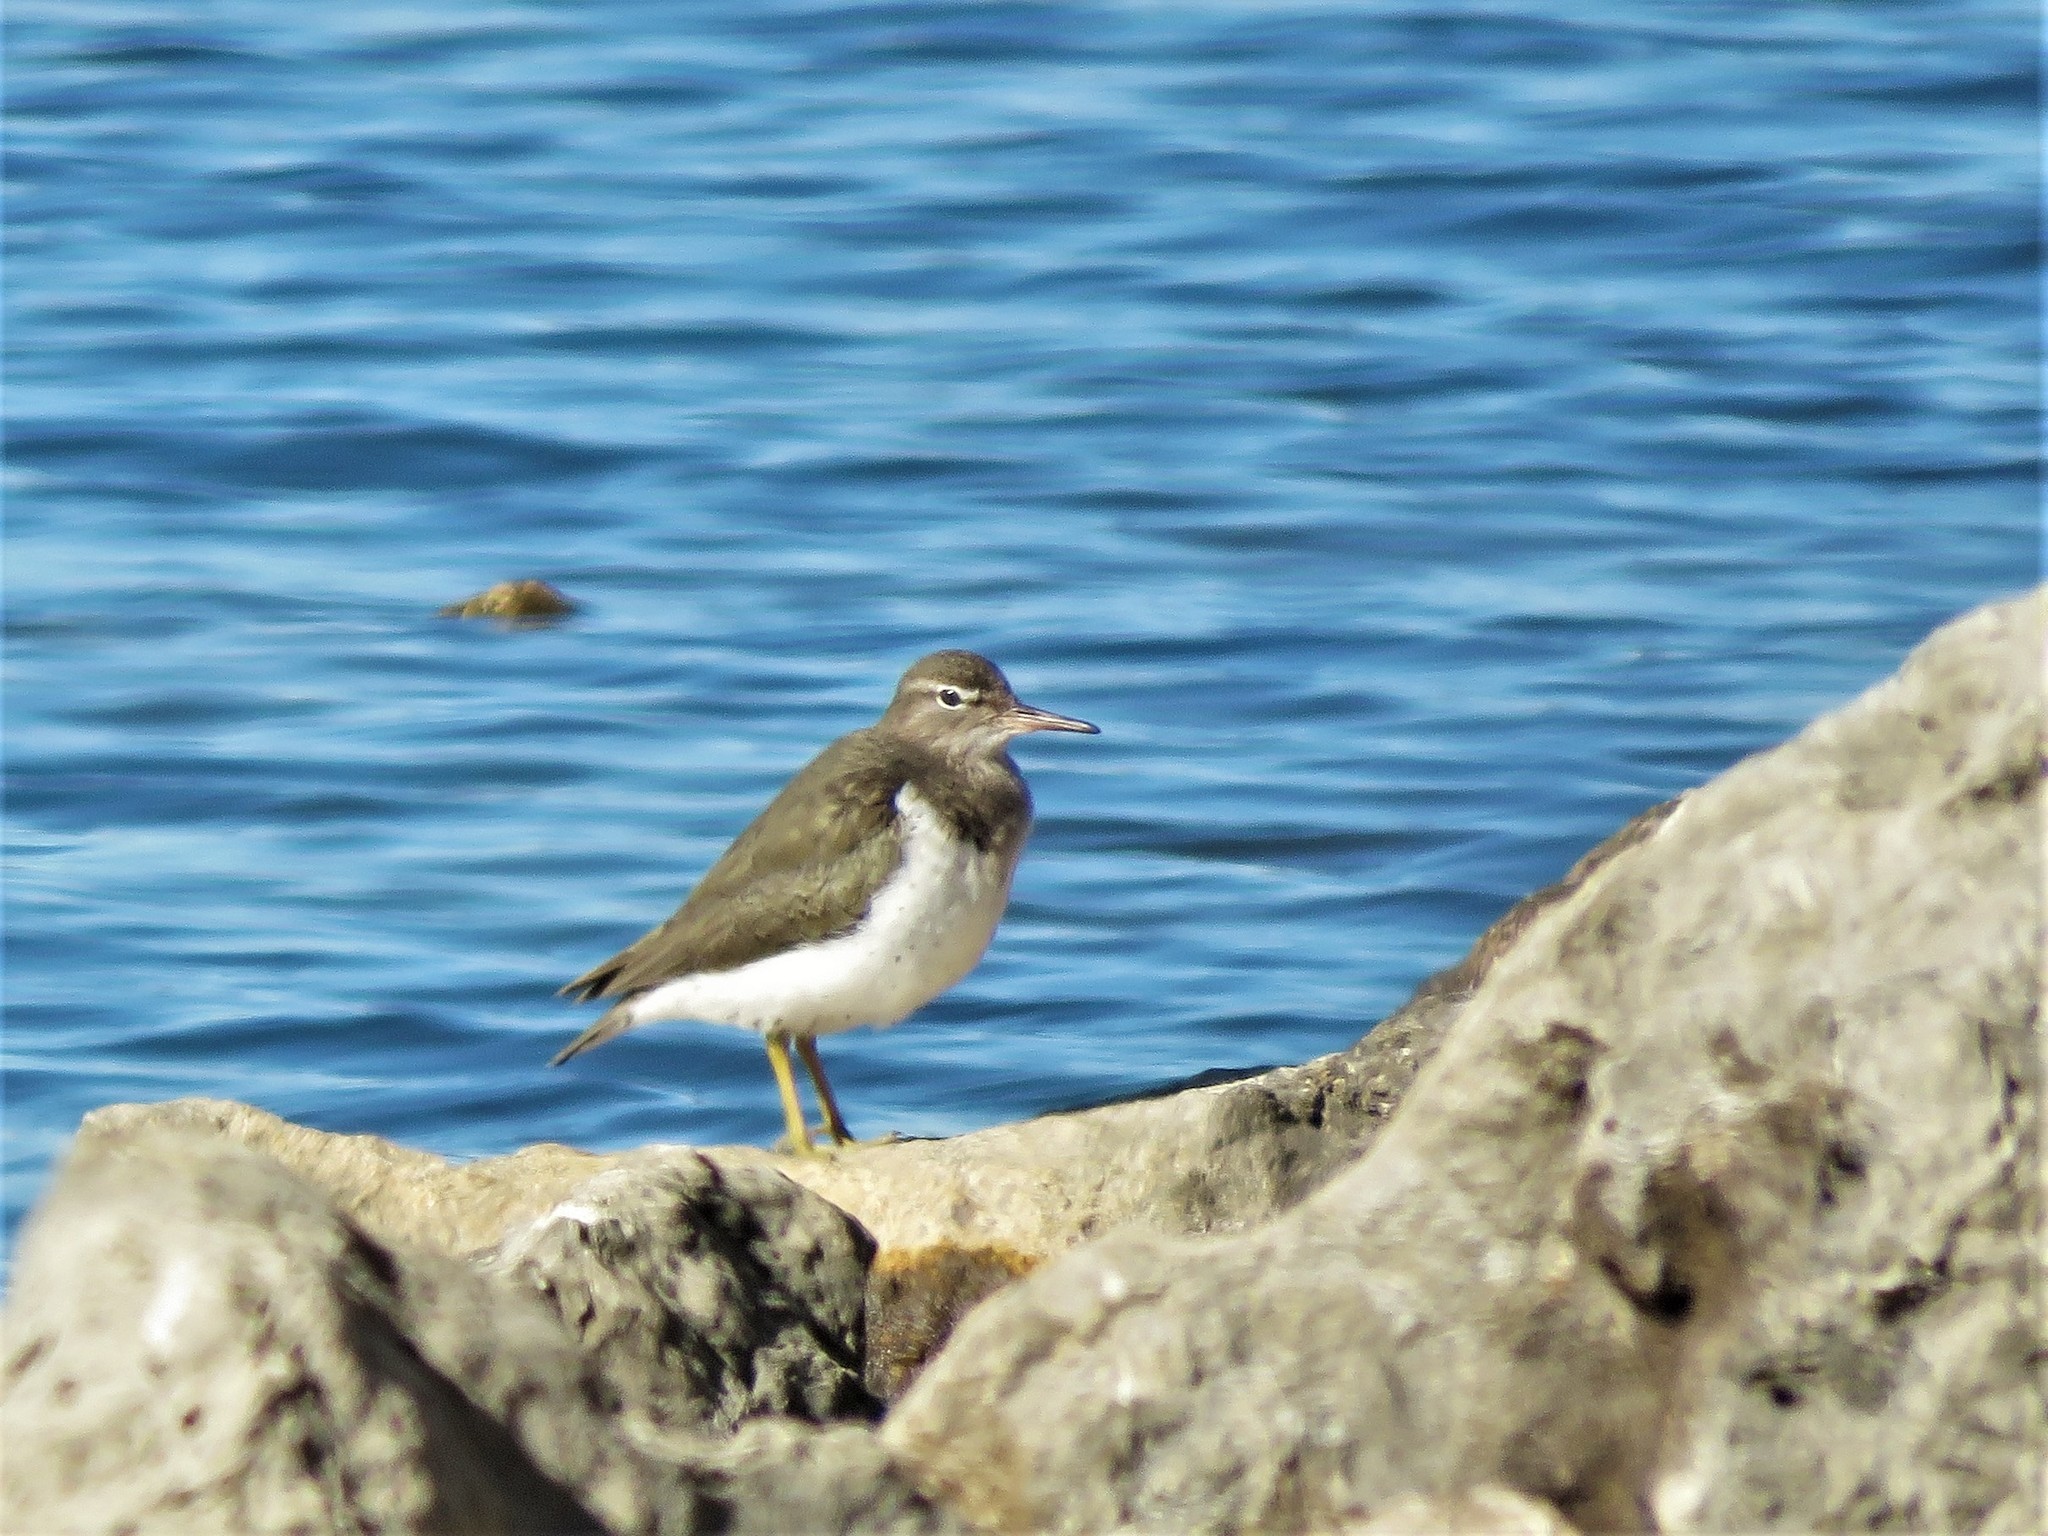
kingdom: Animalia
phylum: Chordata
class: Aves
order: Charadriiformes
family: Scolopacidae
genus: Actitis
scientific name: Actitis macularius
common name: Spotted sandpiper
